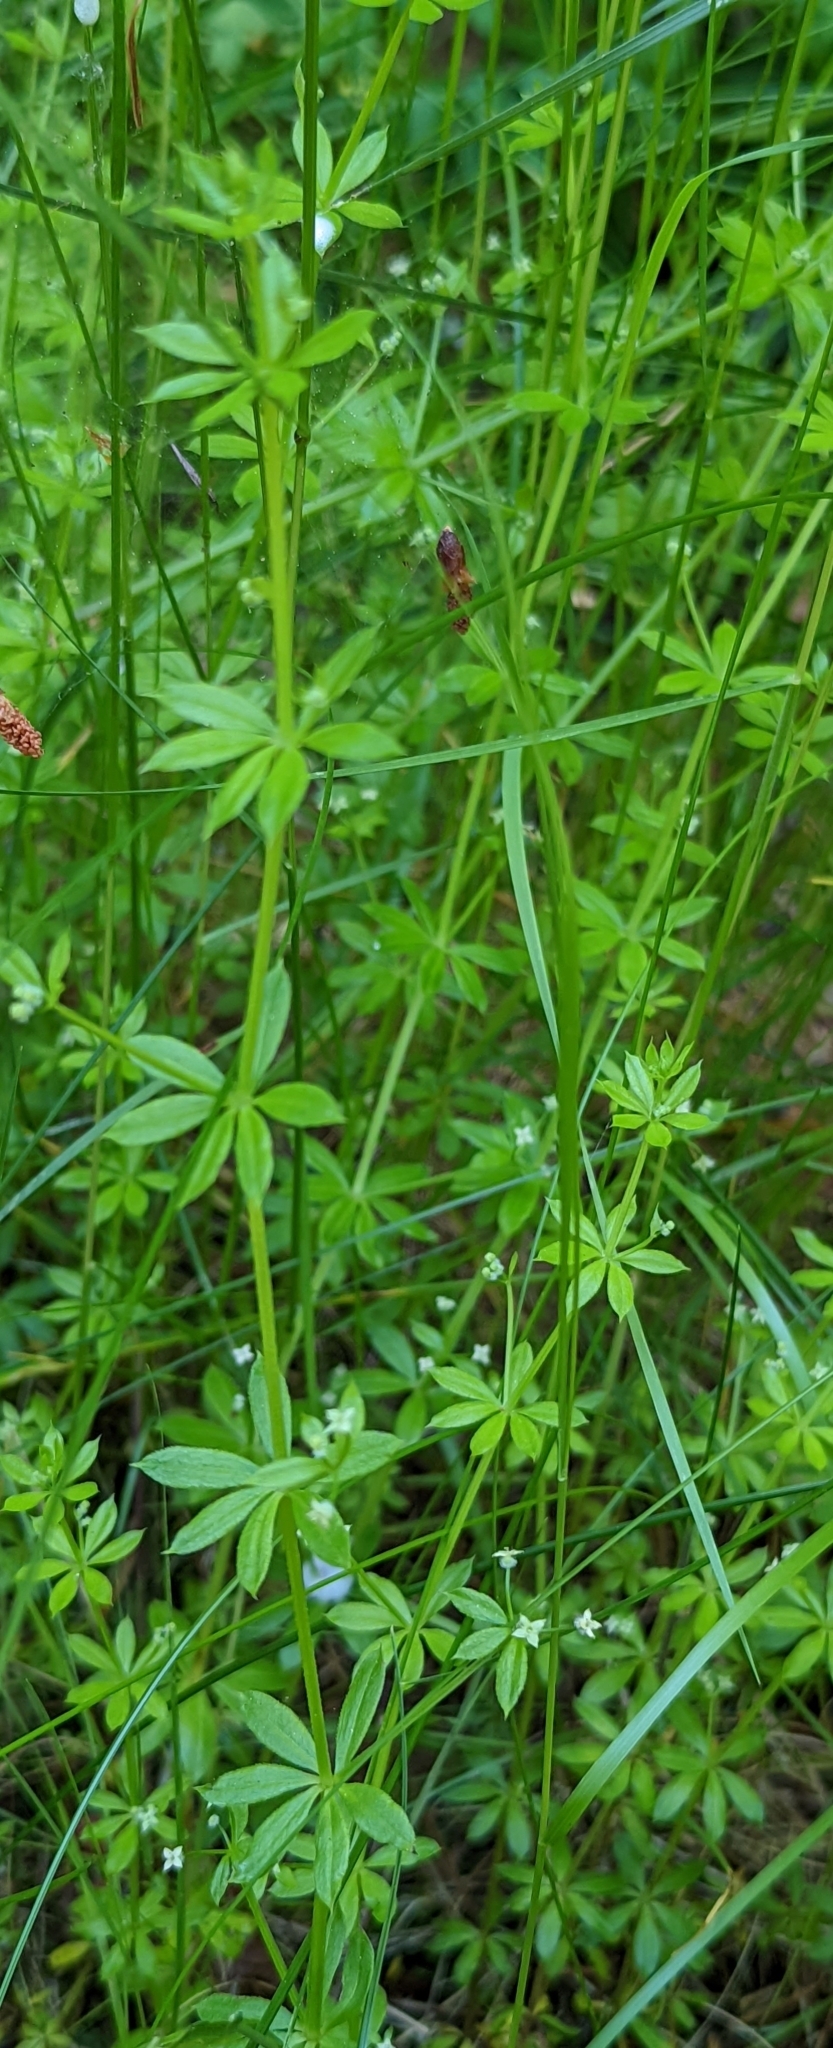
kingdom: Plantae
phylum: Tracheophyta
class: Magnoliopsida
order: Gentianales
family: Rubiaceae
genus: Galium
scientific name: Galium triflorum
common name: Fragrant bedstraw
